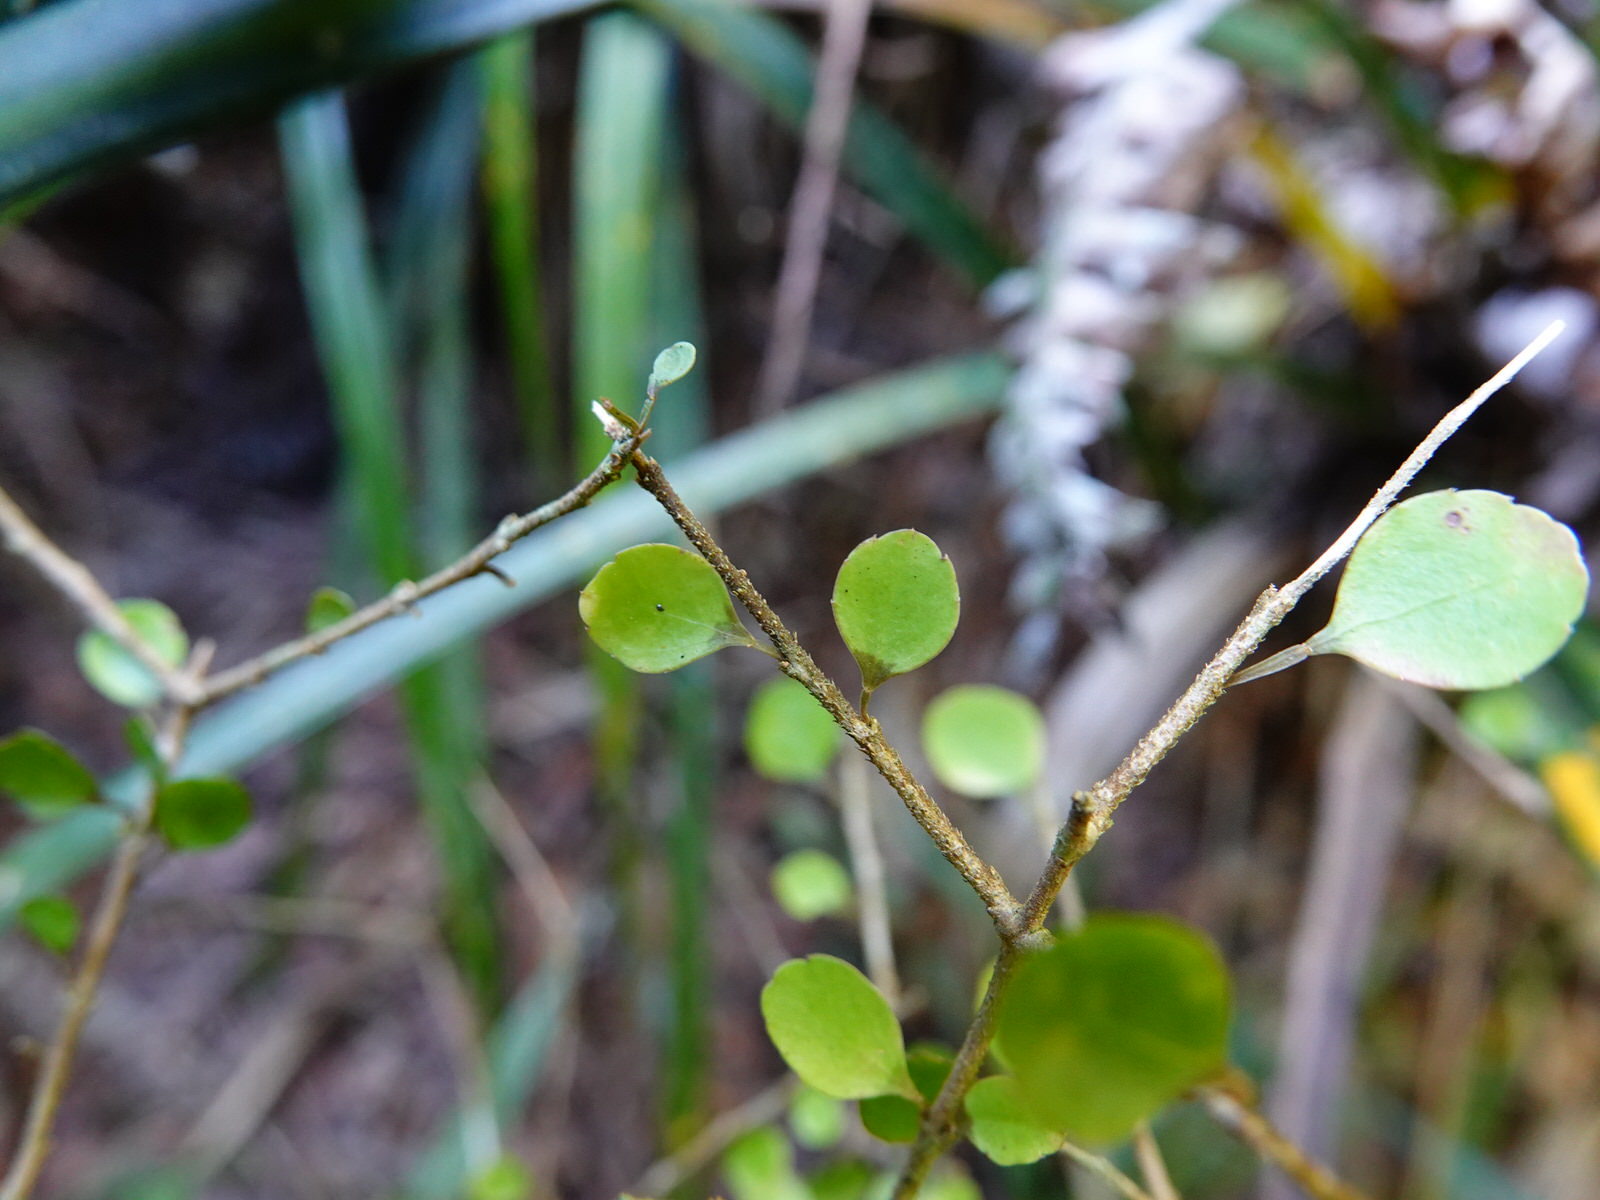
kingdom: Plantae
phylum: Tracheophyta
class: Magnoliopsida
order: Apiales
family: Araliaceae
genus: Raukaua
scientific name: Raukaua anomalus
